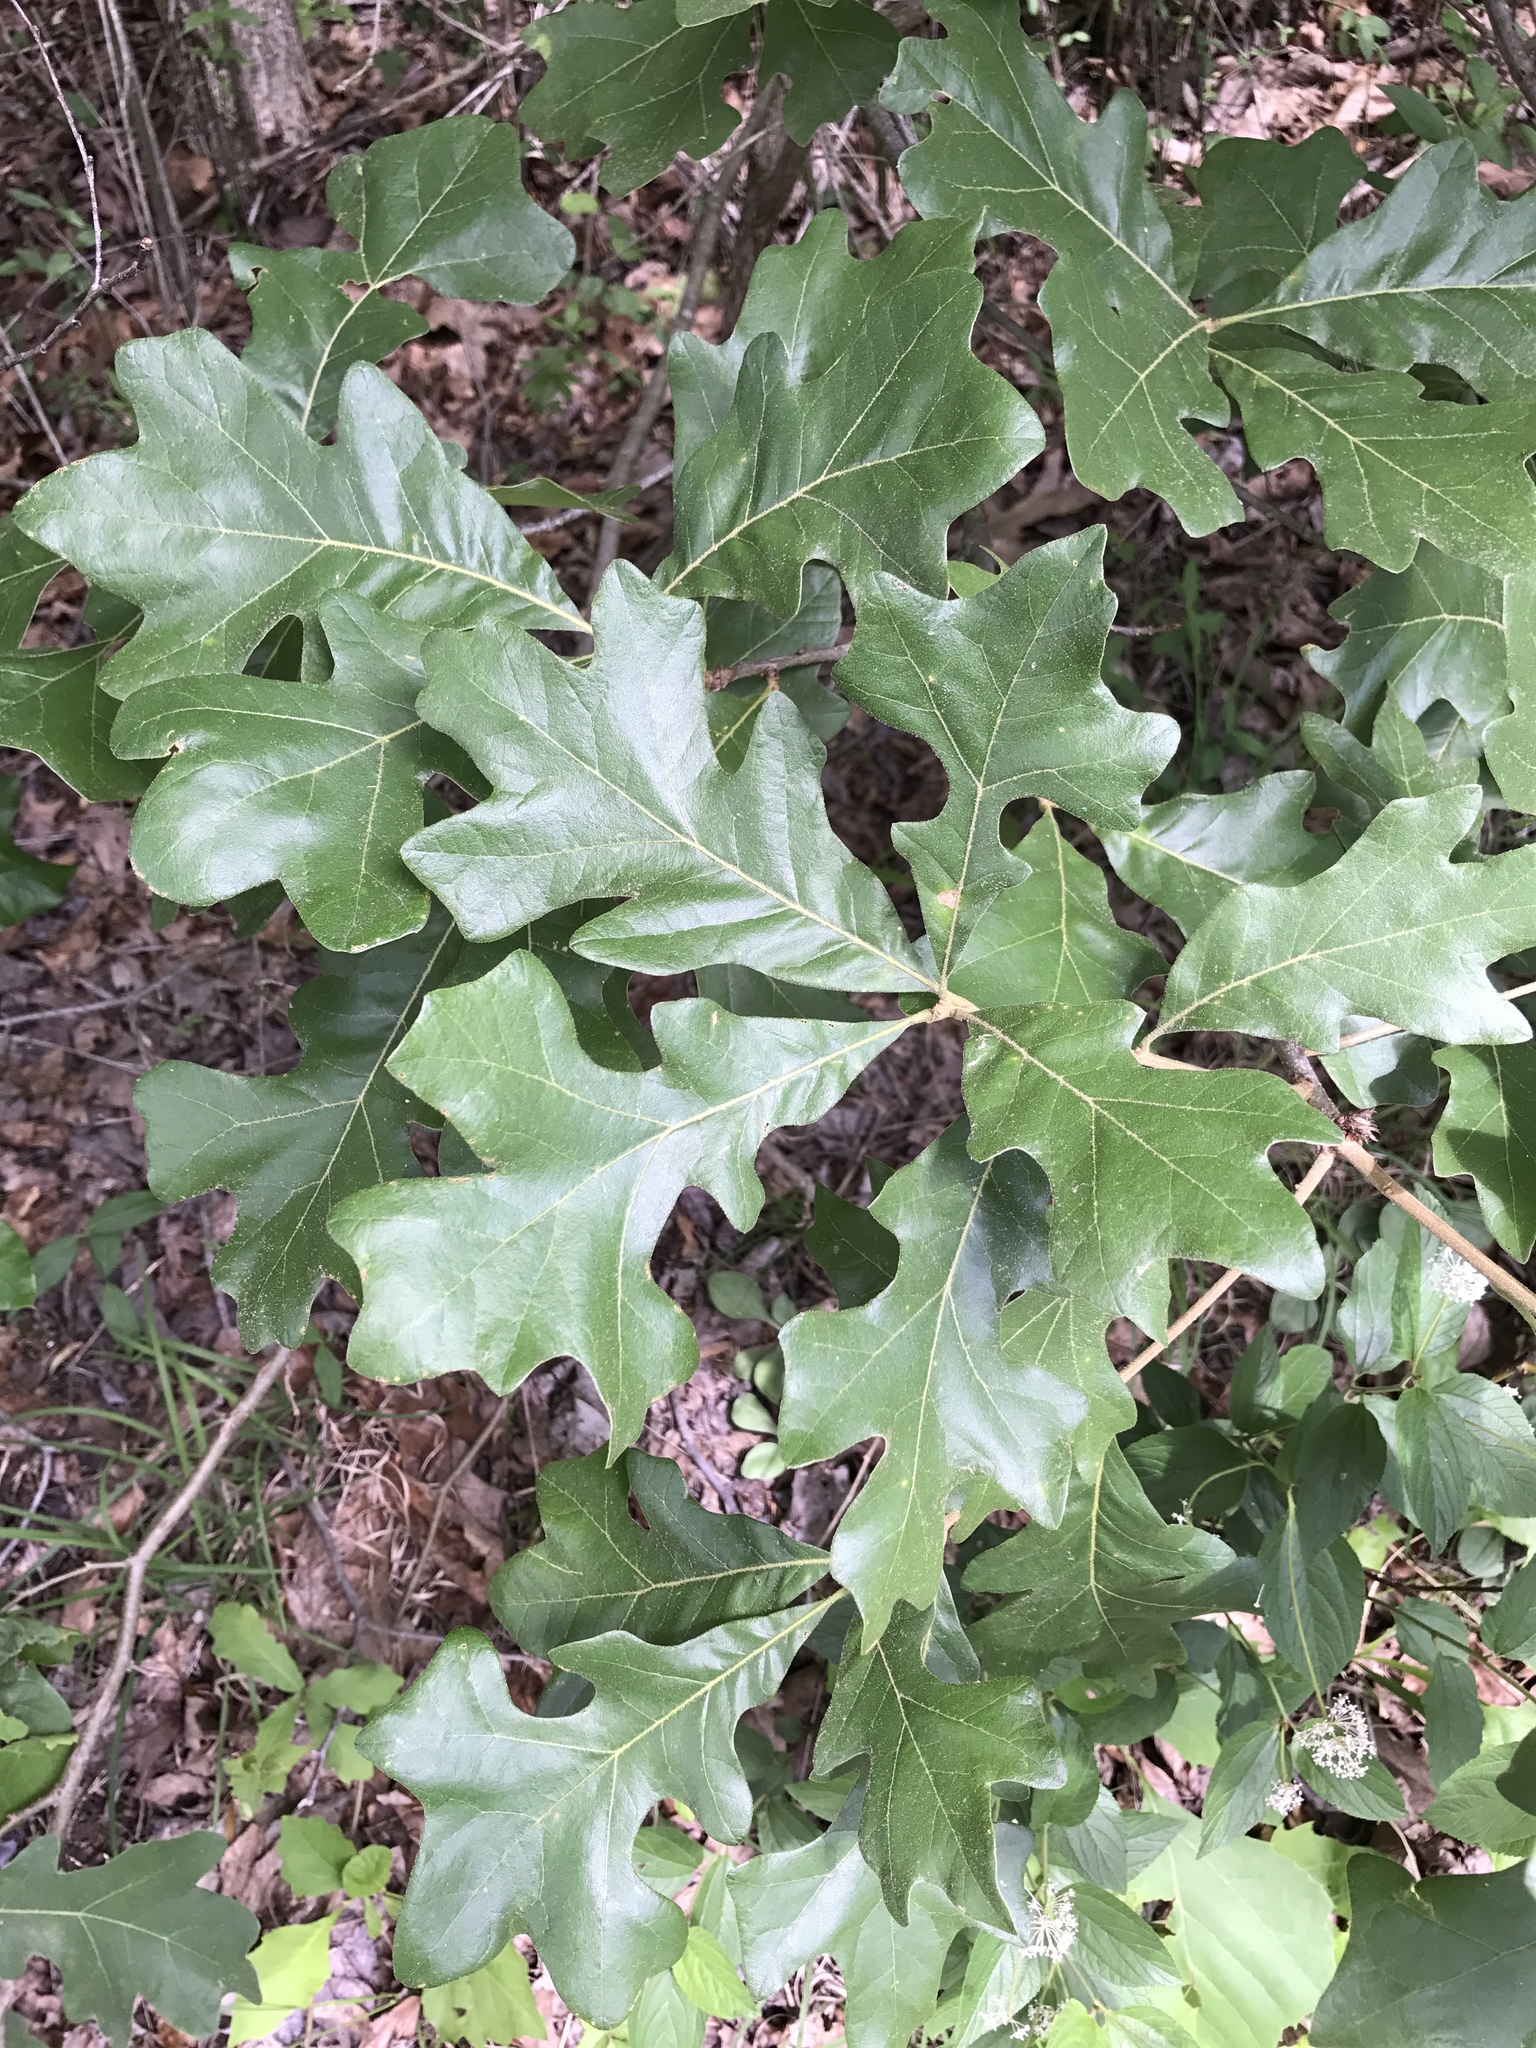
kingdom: Plantae
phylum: Tracheophyta
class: Magnoliopsida
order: Fagales
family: Fagaceae
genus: Quercus
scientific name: Quercus stellata
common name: Post oak
